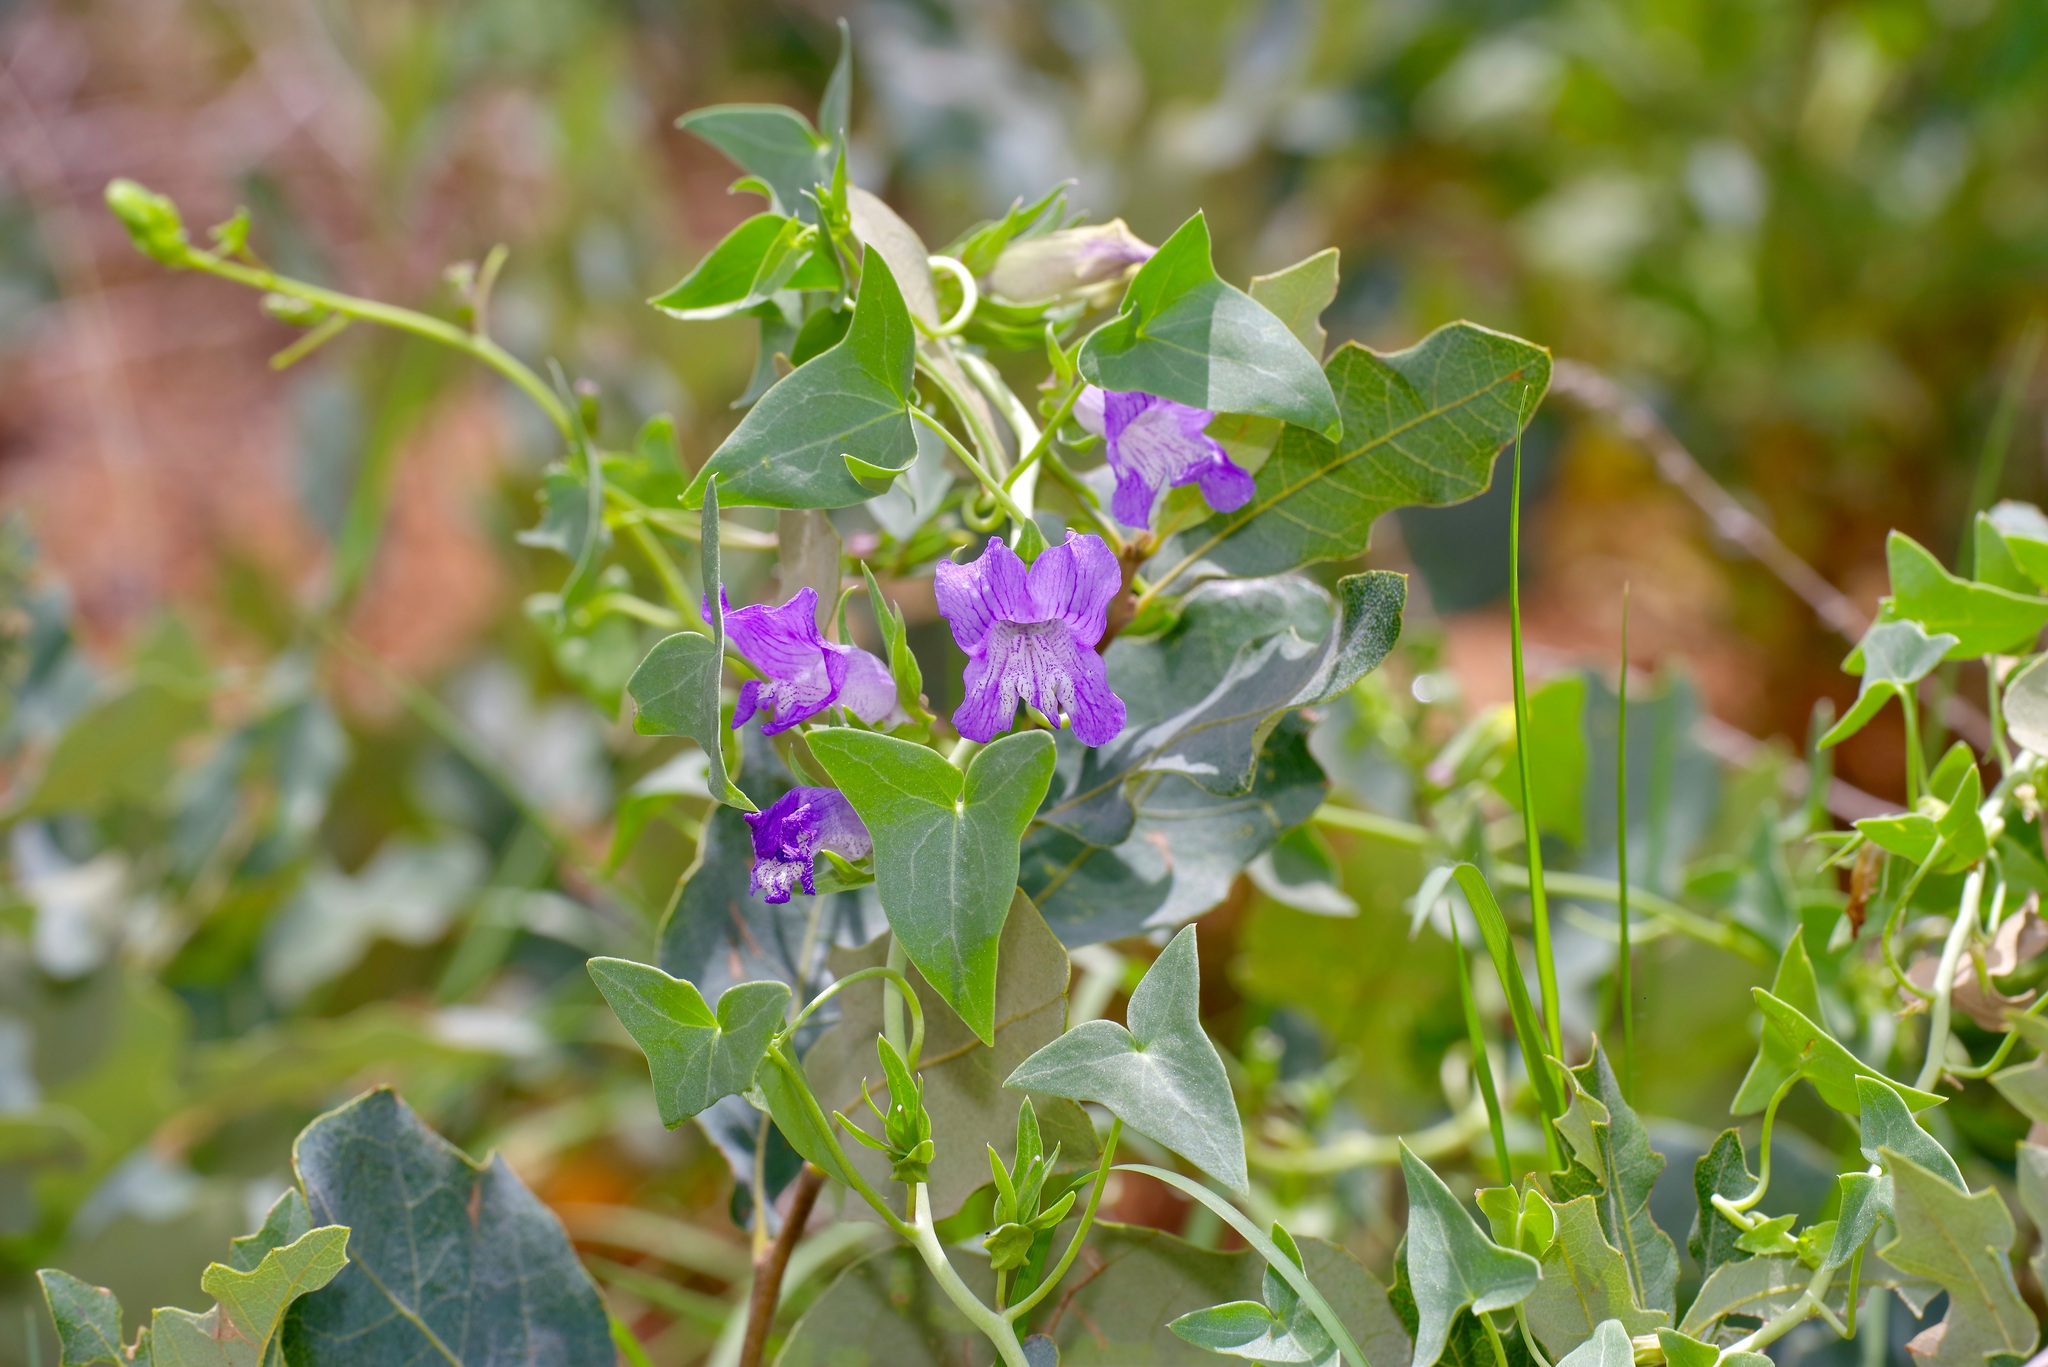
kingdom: Plantae
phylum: Tracheophyta
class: Magnoliopsida
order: Lamiales
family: Plantaginaceae
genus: Epixiphium
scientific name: Epixiphium wislizeni
